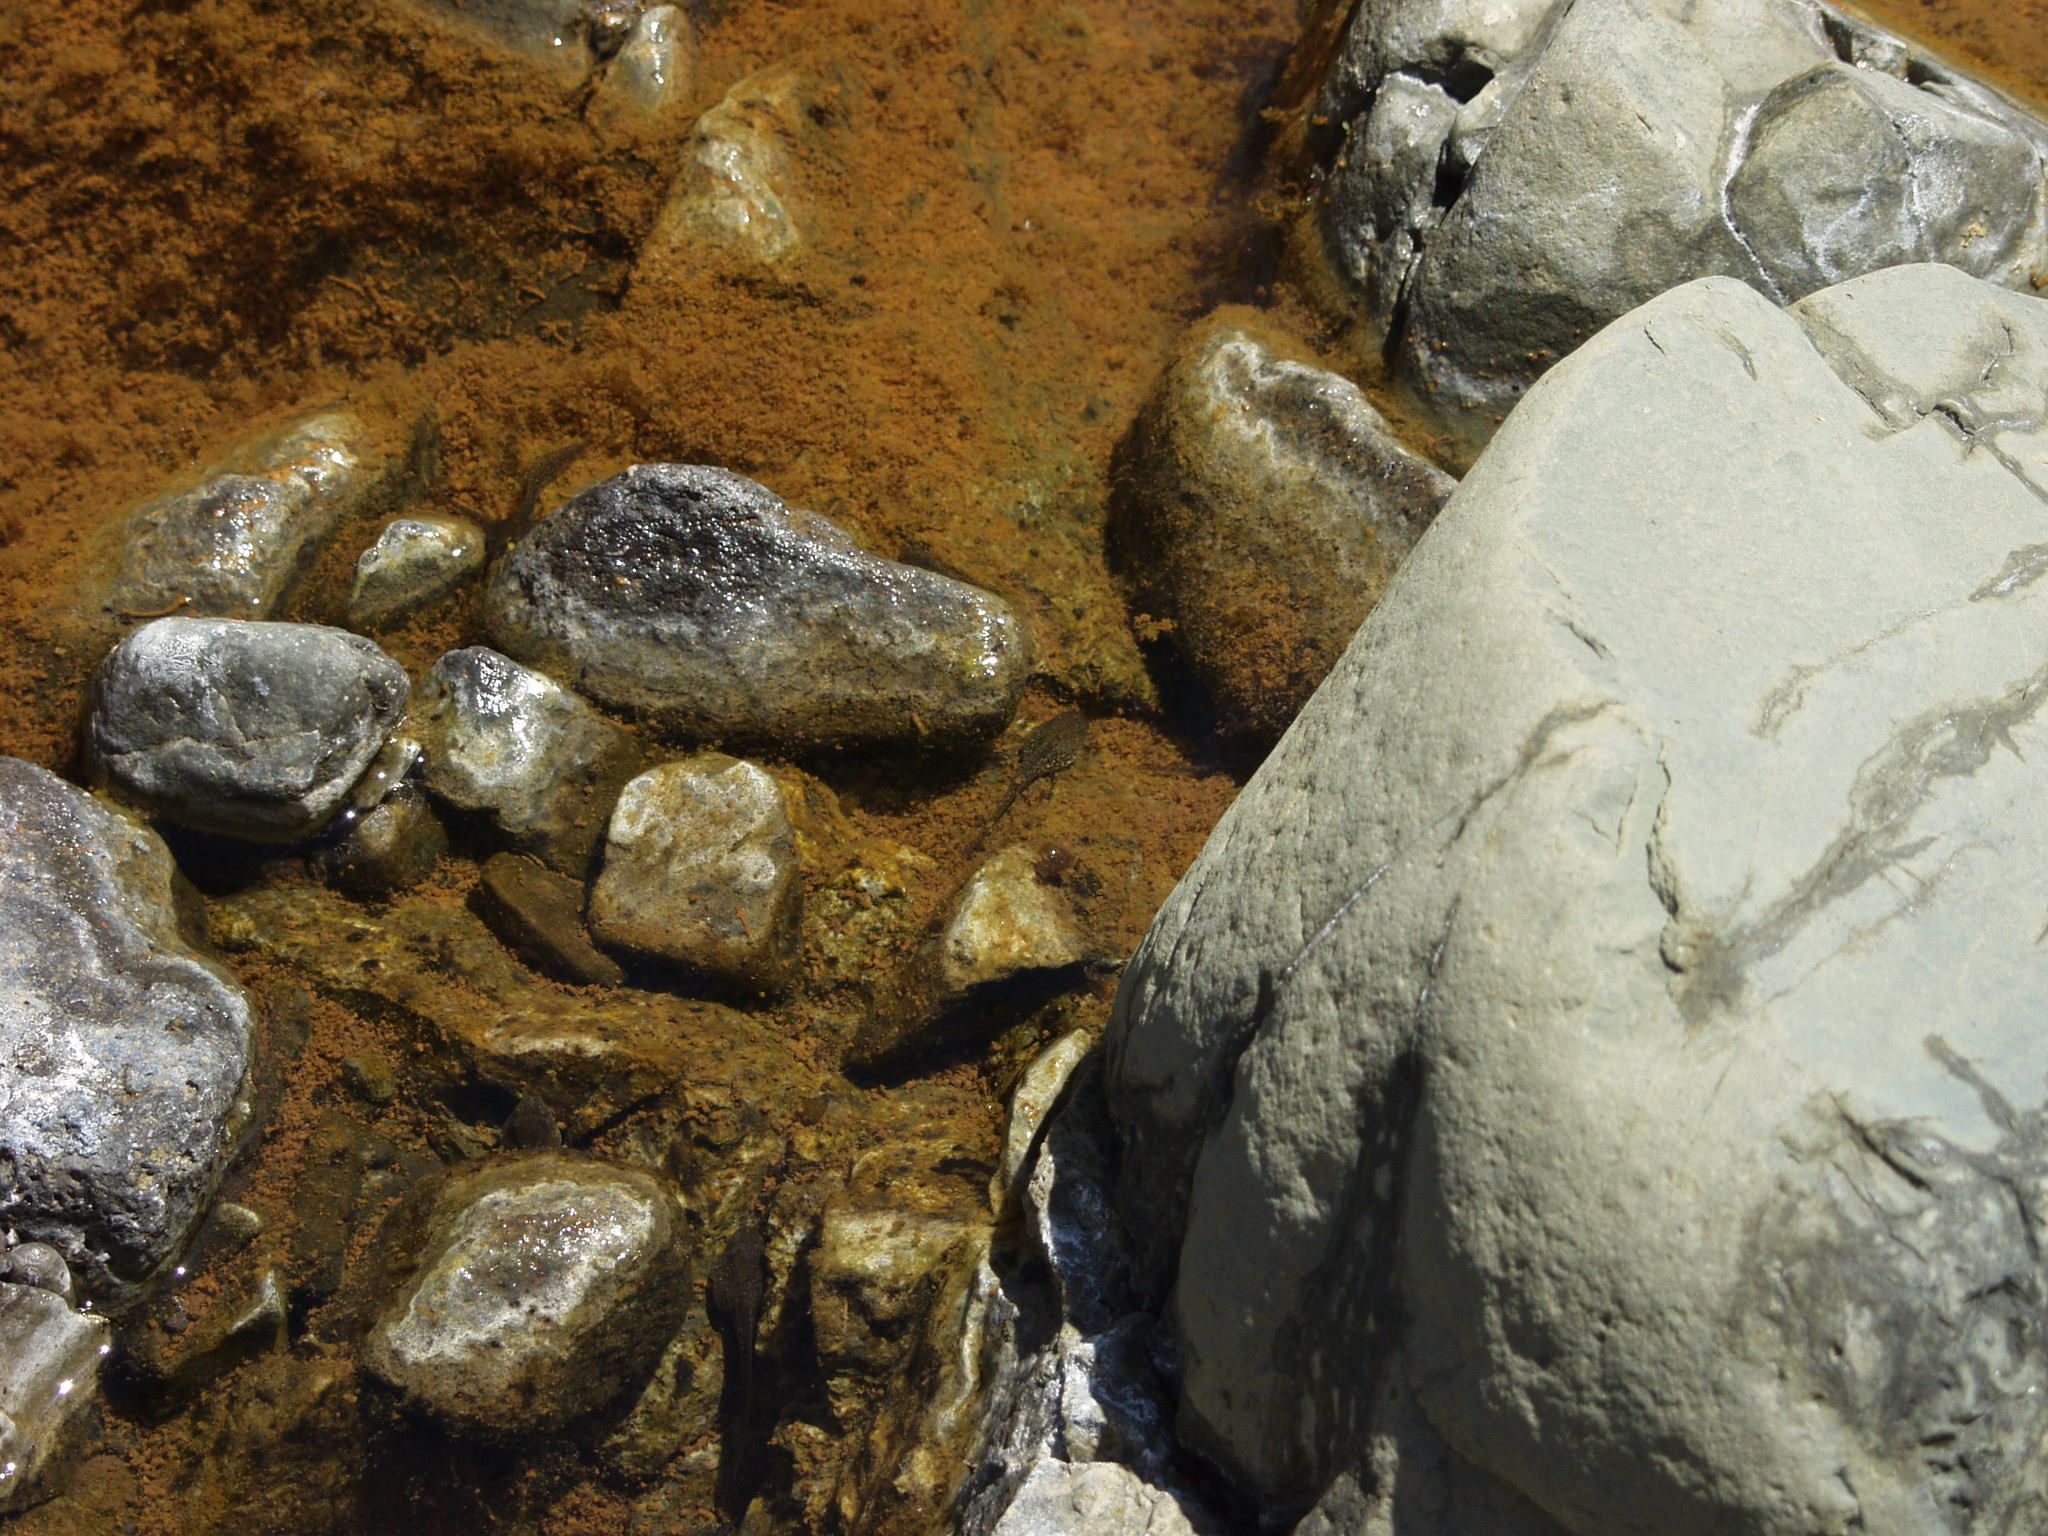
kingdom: Animalia
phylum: Chordata
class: Amphibia
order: Anura
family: Ranidae
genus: Pelophylax
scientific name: Pelophylax perezi
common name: Perez's frog
